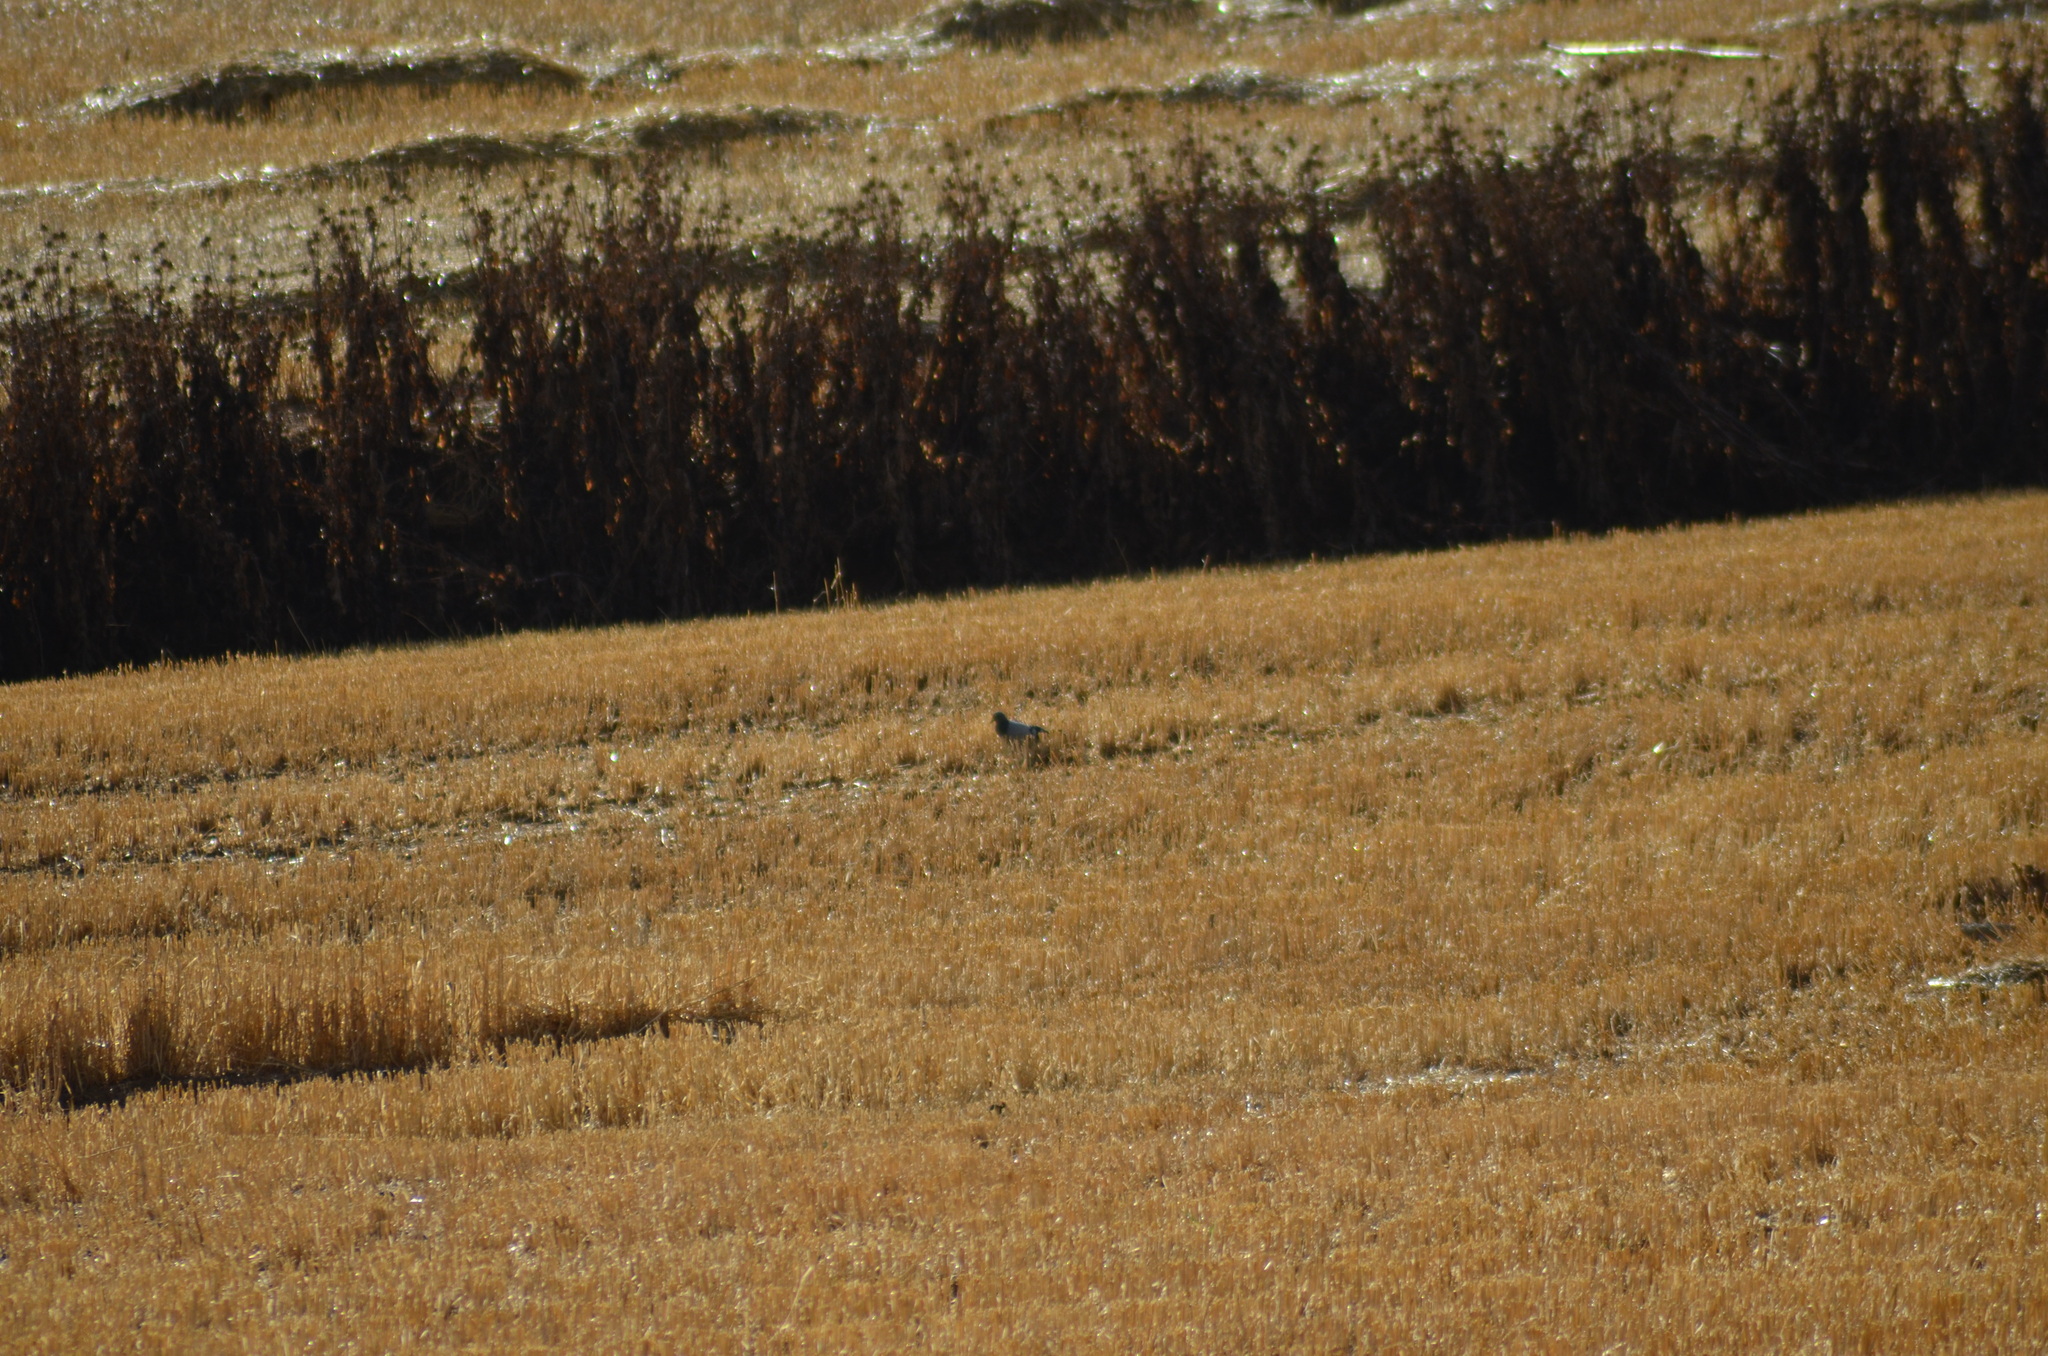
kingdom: Animalia
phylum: Chordata
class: Aves
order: Columbiformes
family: Columbidae
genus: Columba
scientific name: Columba livia
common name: Rock pigeon
